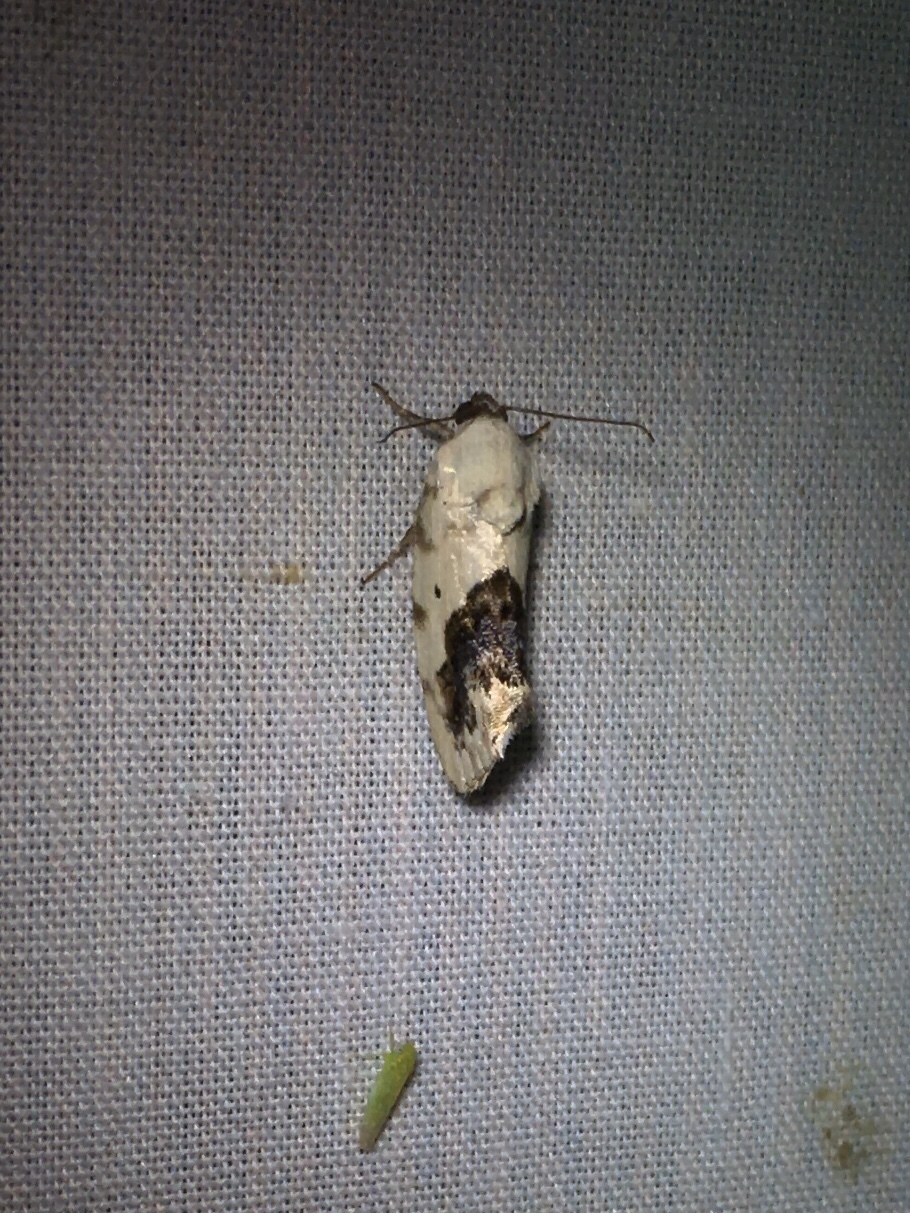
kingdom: Animalia
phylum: Arthropoda
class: Insecta
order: Lepidoptera
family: Noctuidae
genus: Acontia
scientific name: Acontia erastrioides
